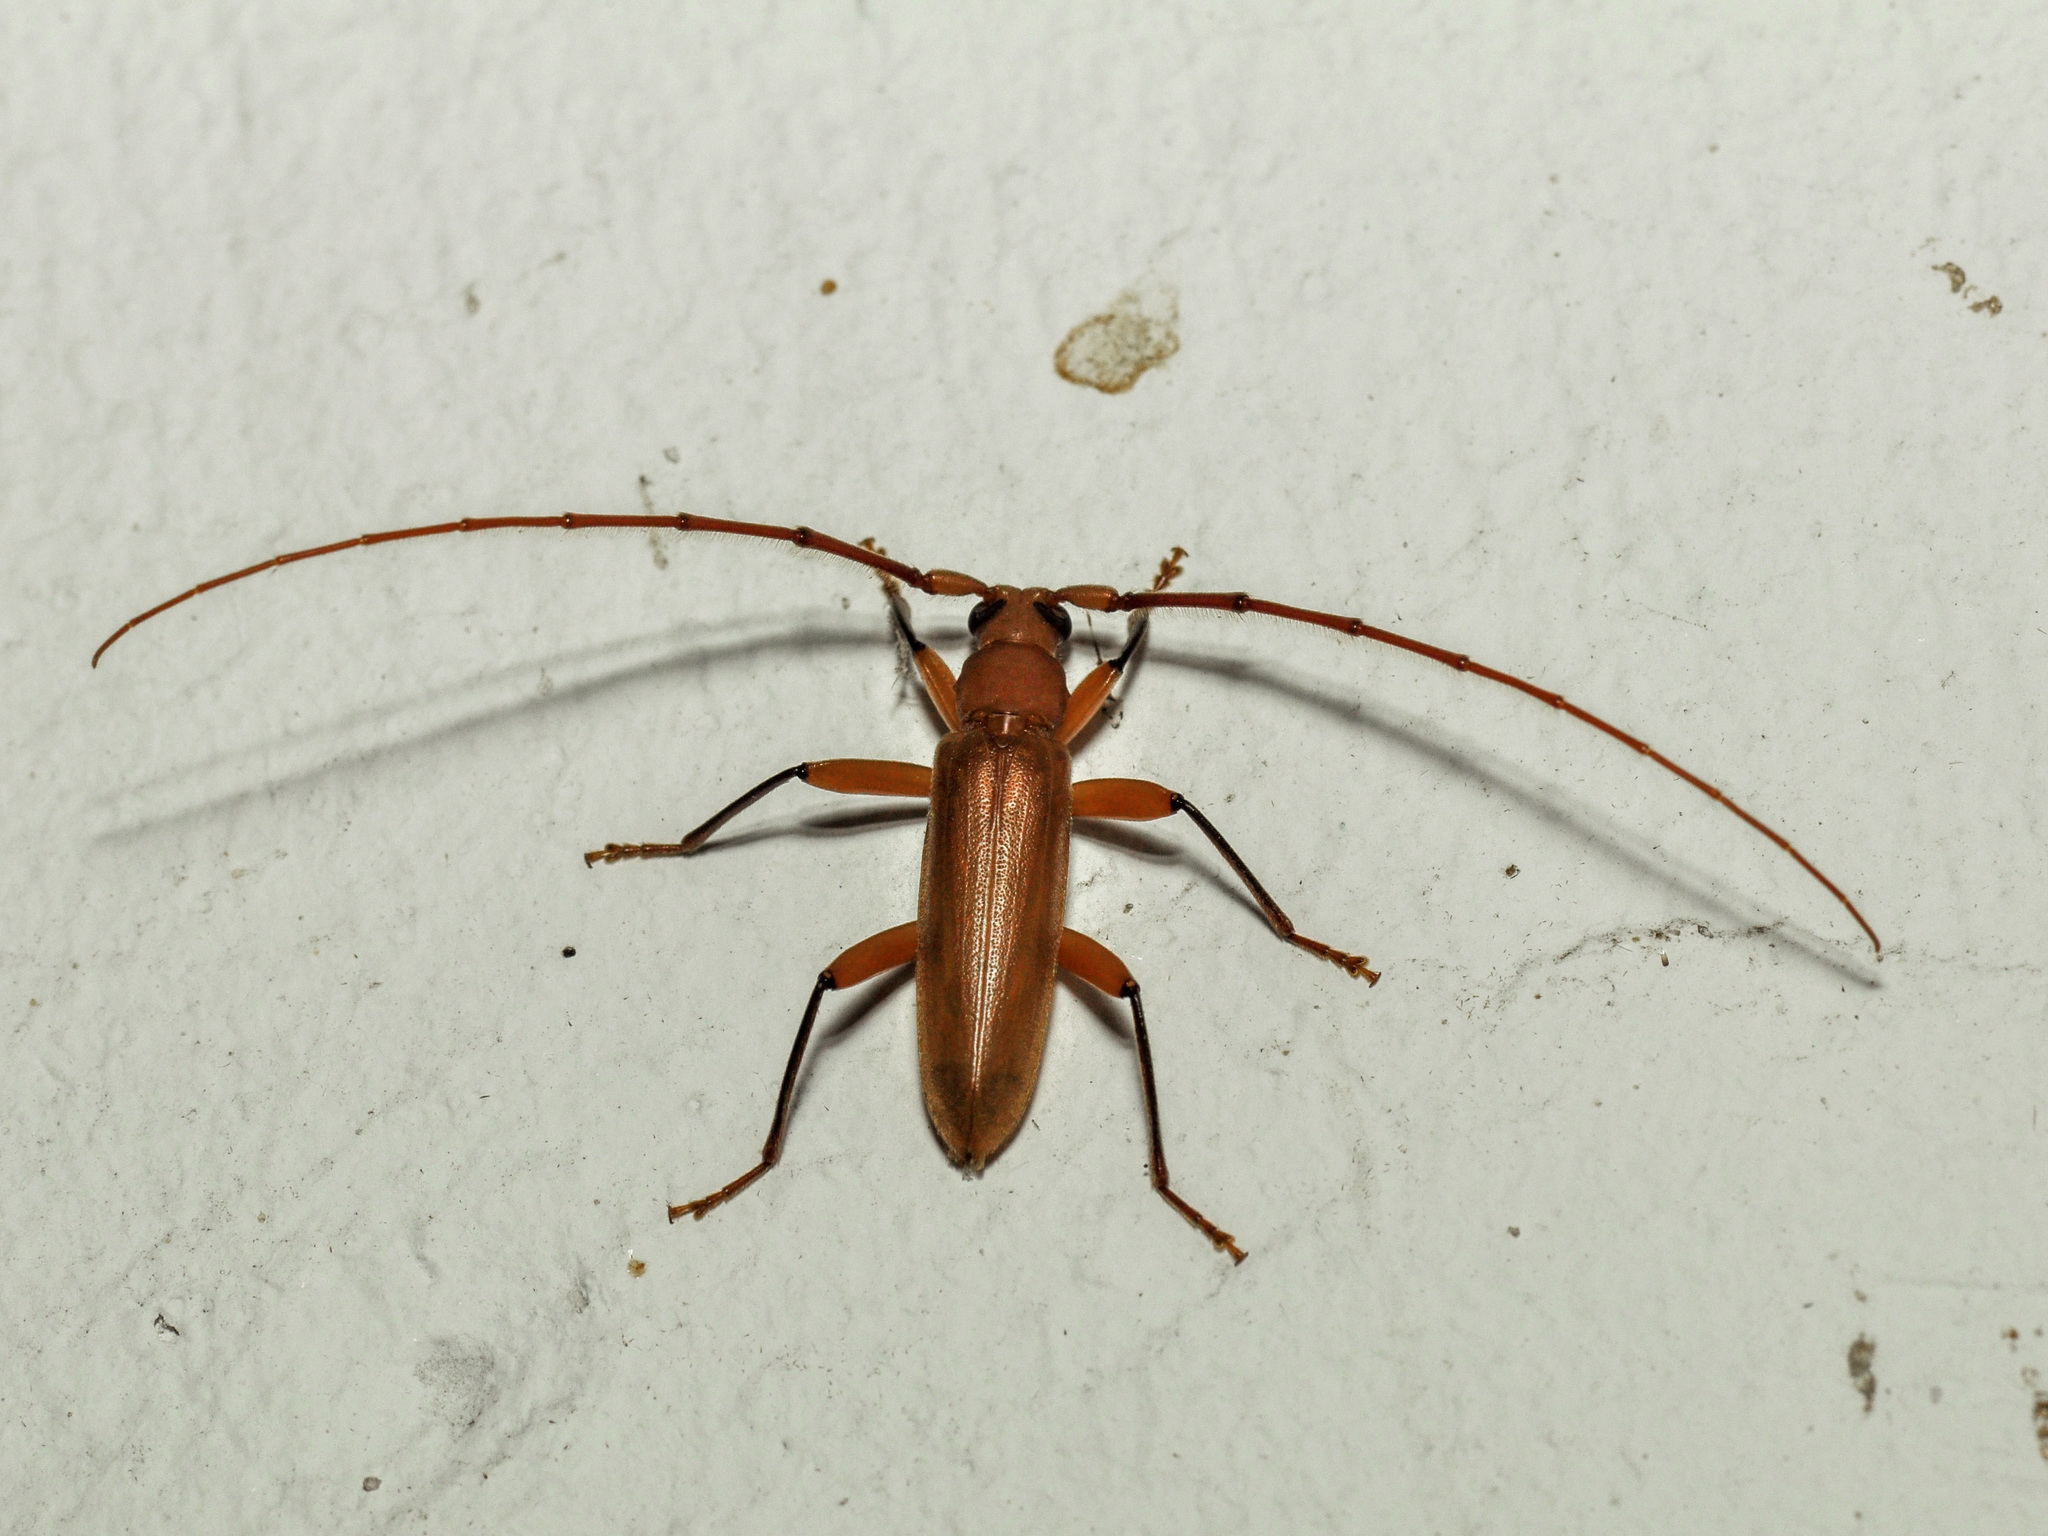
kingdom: Animalia
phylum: Arthropoda
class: Insecta
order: Coleoptera
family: Cerambycidae
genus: Noserius
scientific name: Noserius tibialis
